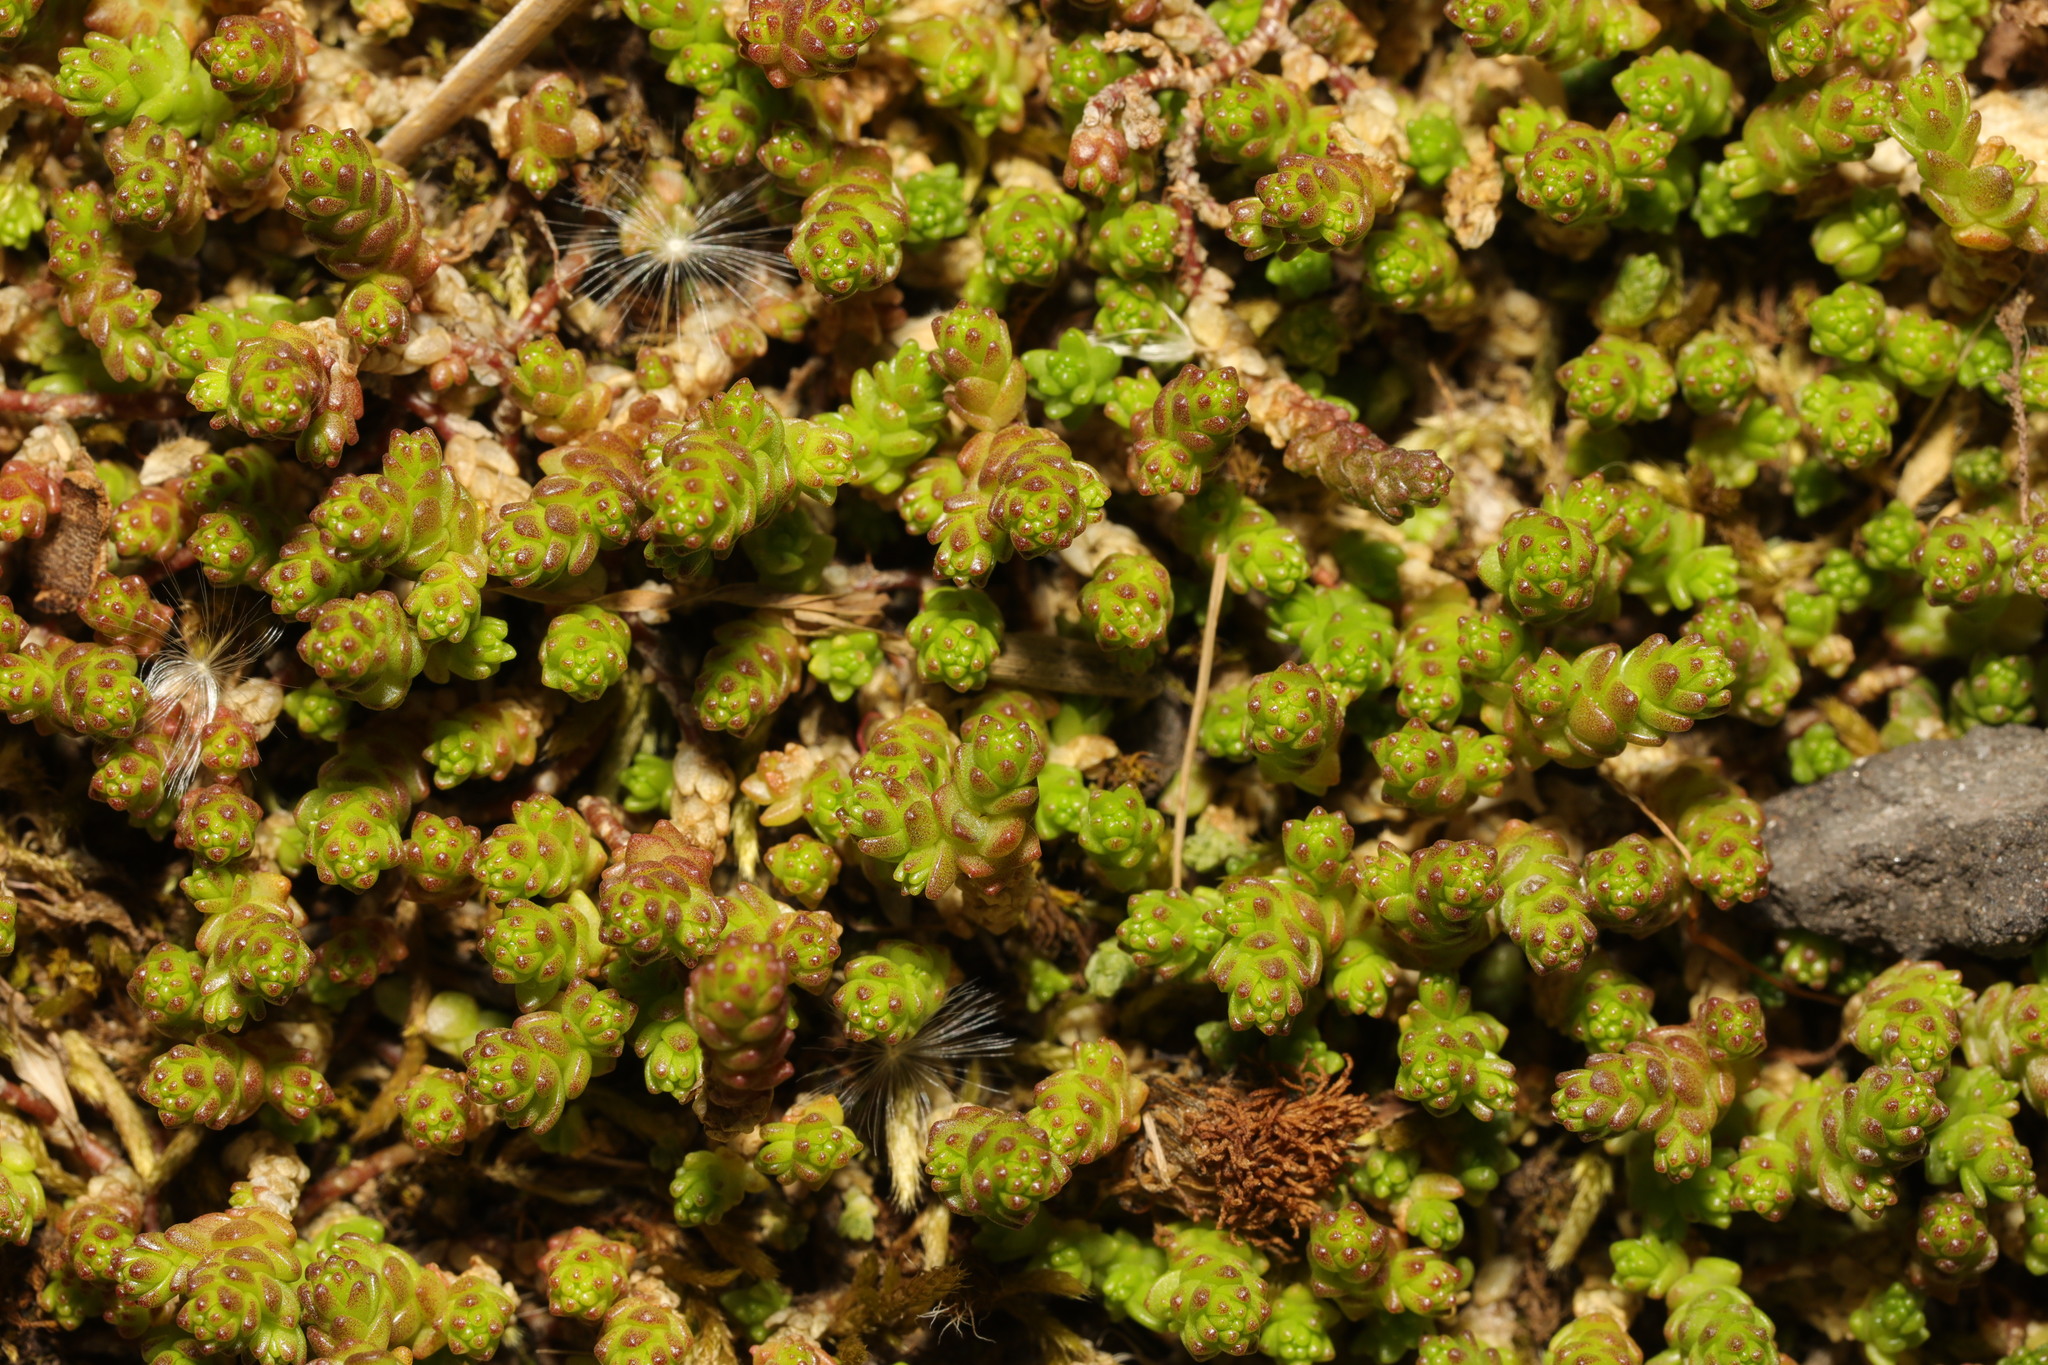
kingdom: Plantae
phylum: Tracheophyta
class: Magnoliopsida
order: Saxifragales
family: Crassulaceae
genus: Sedum
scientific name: Sedum acre
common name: Biting stonecrop
